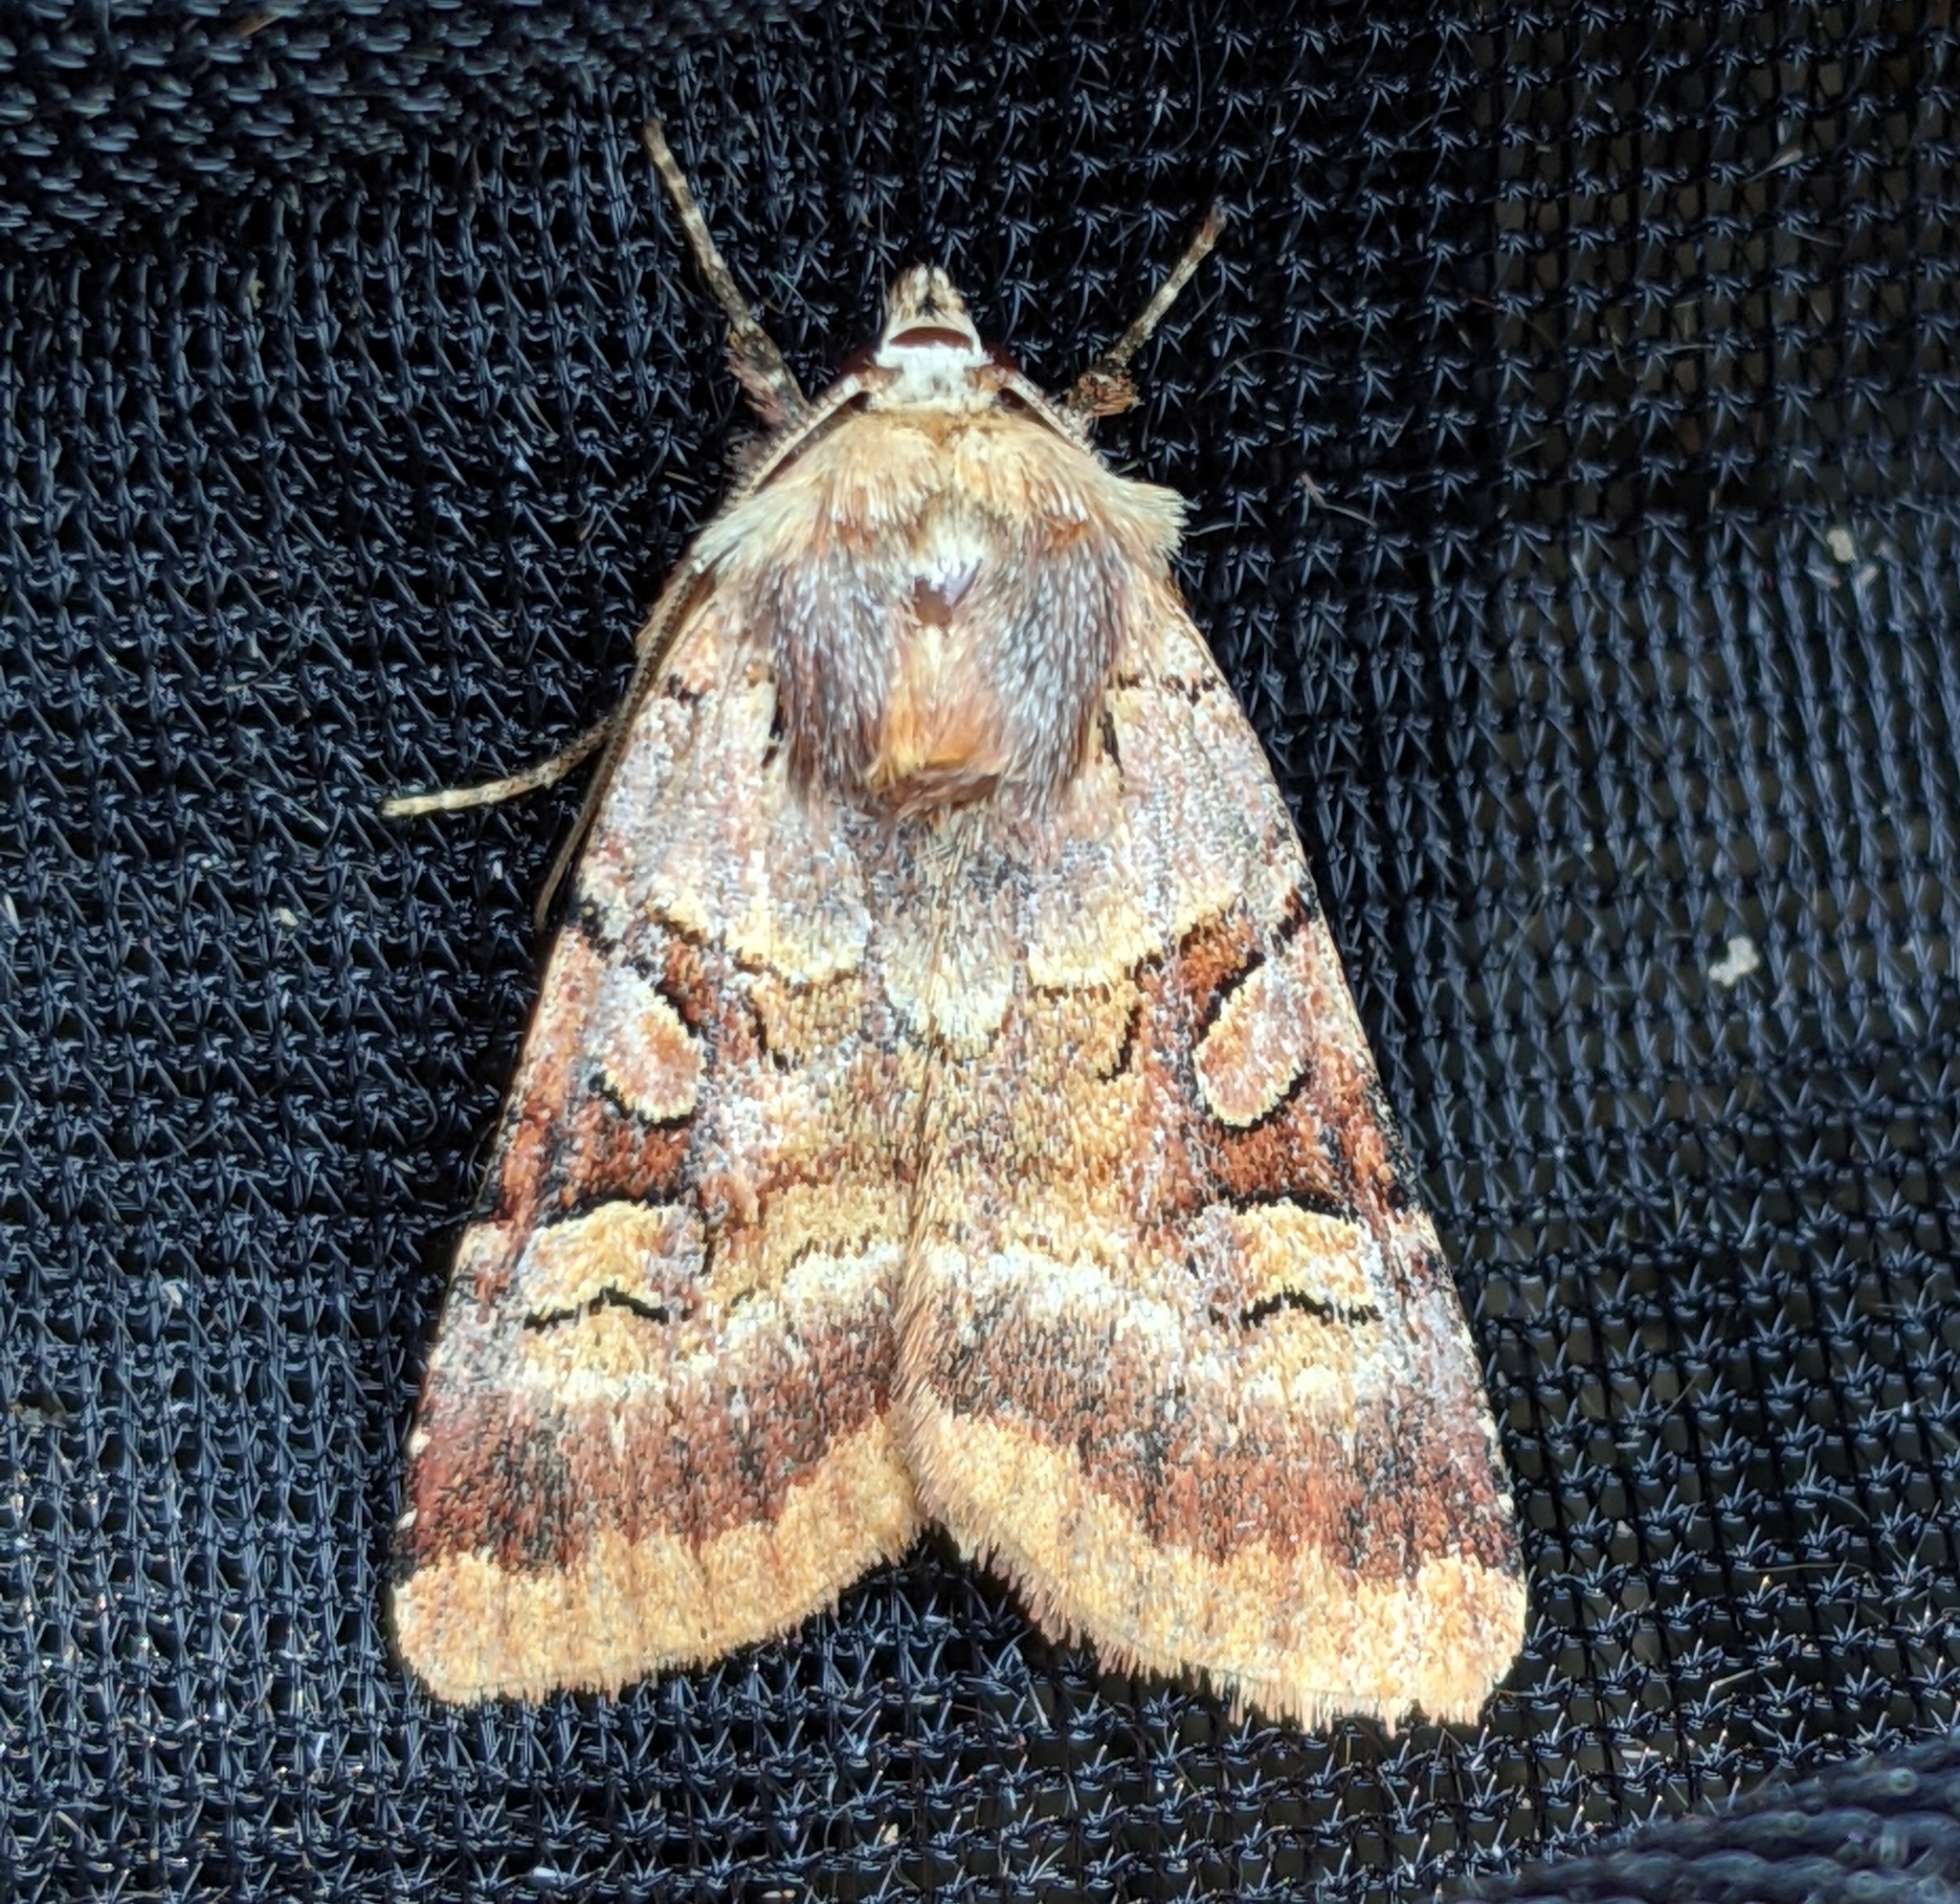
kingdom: Animalia
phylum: Arthropoda
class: Insecta
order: Lepidoptera
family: Noctuidae
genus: Xestia
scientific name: Xestia oblata
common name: Rosy dart
